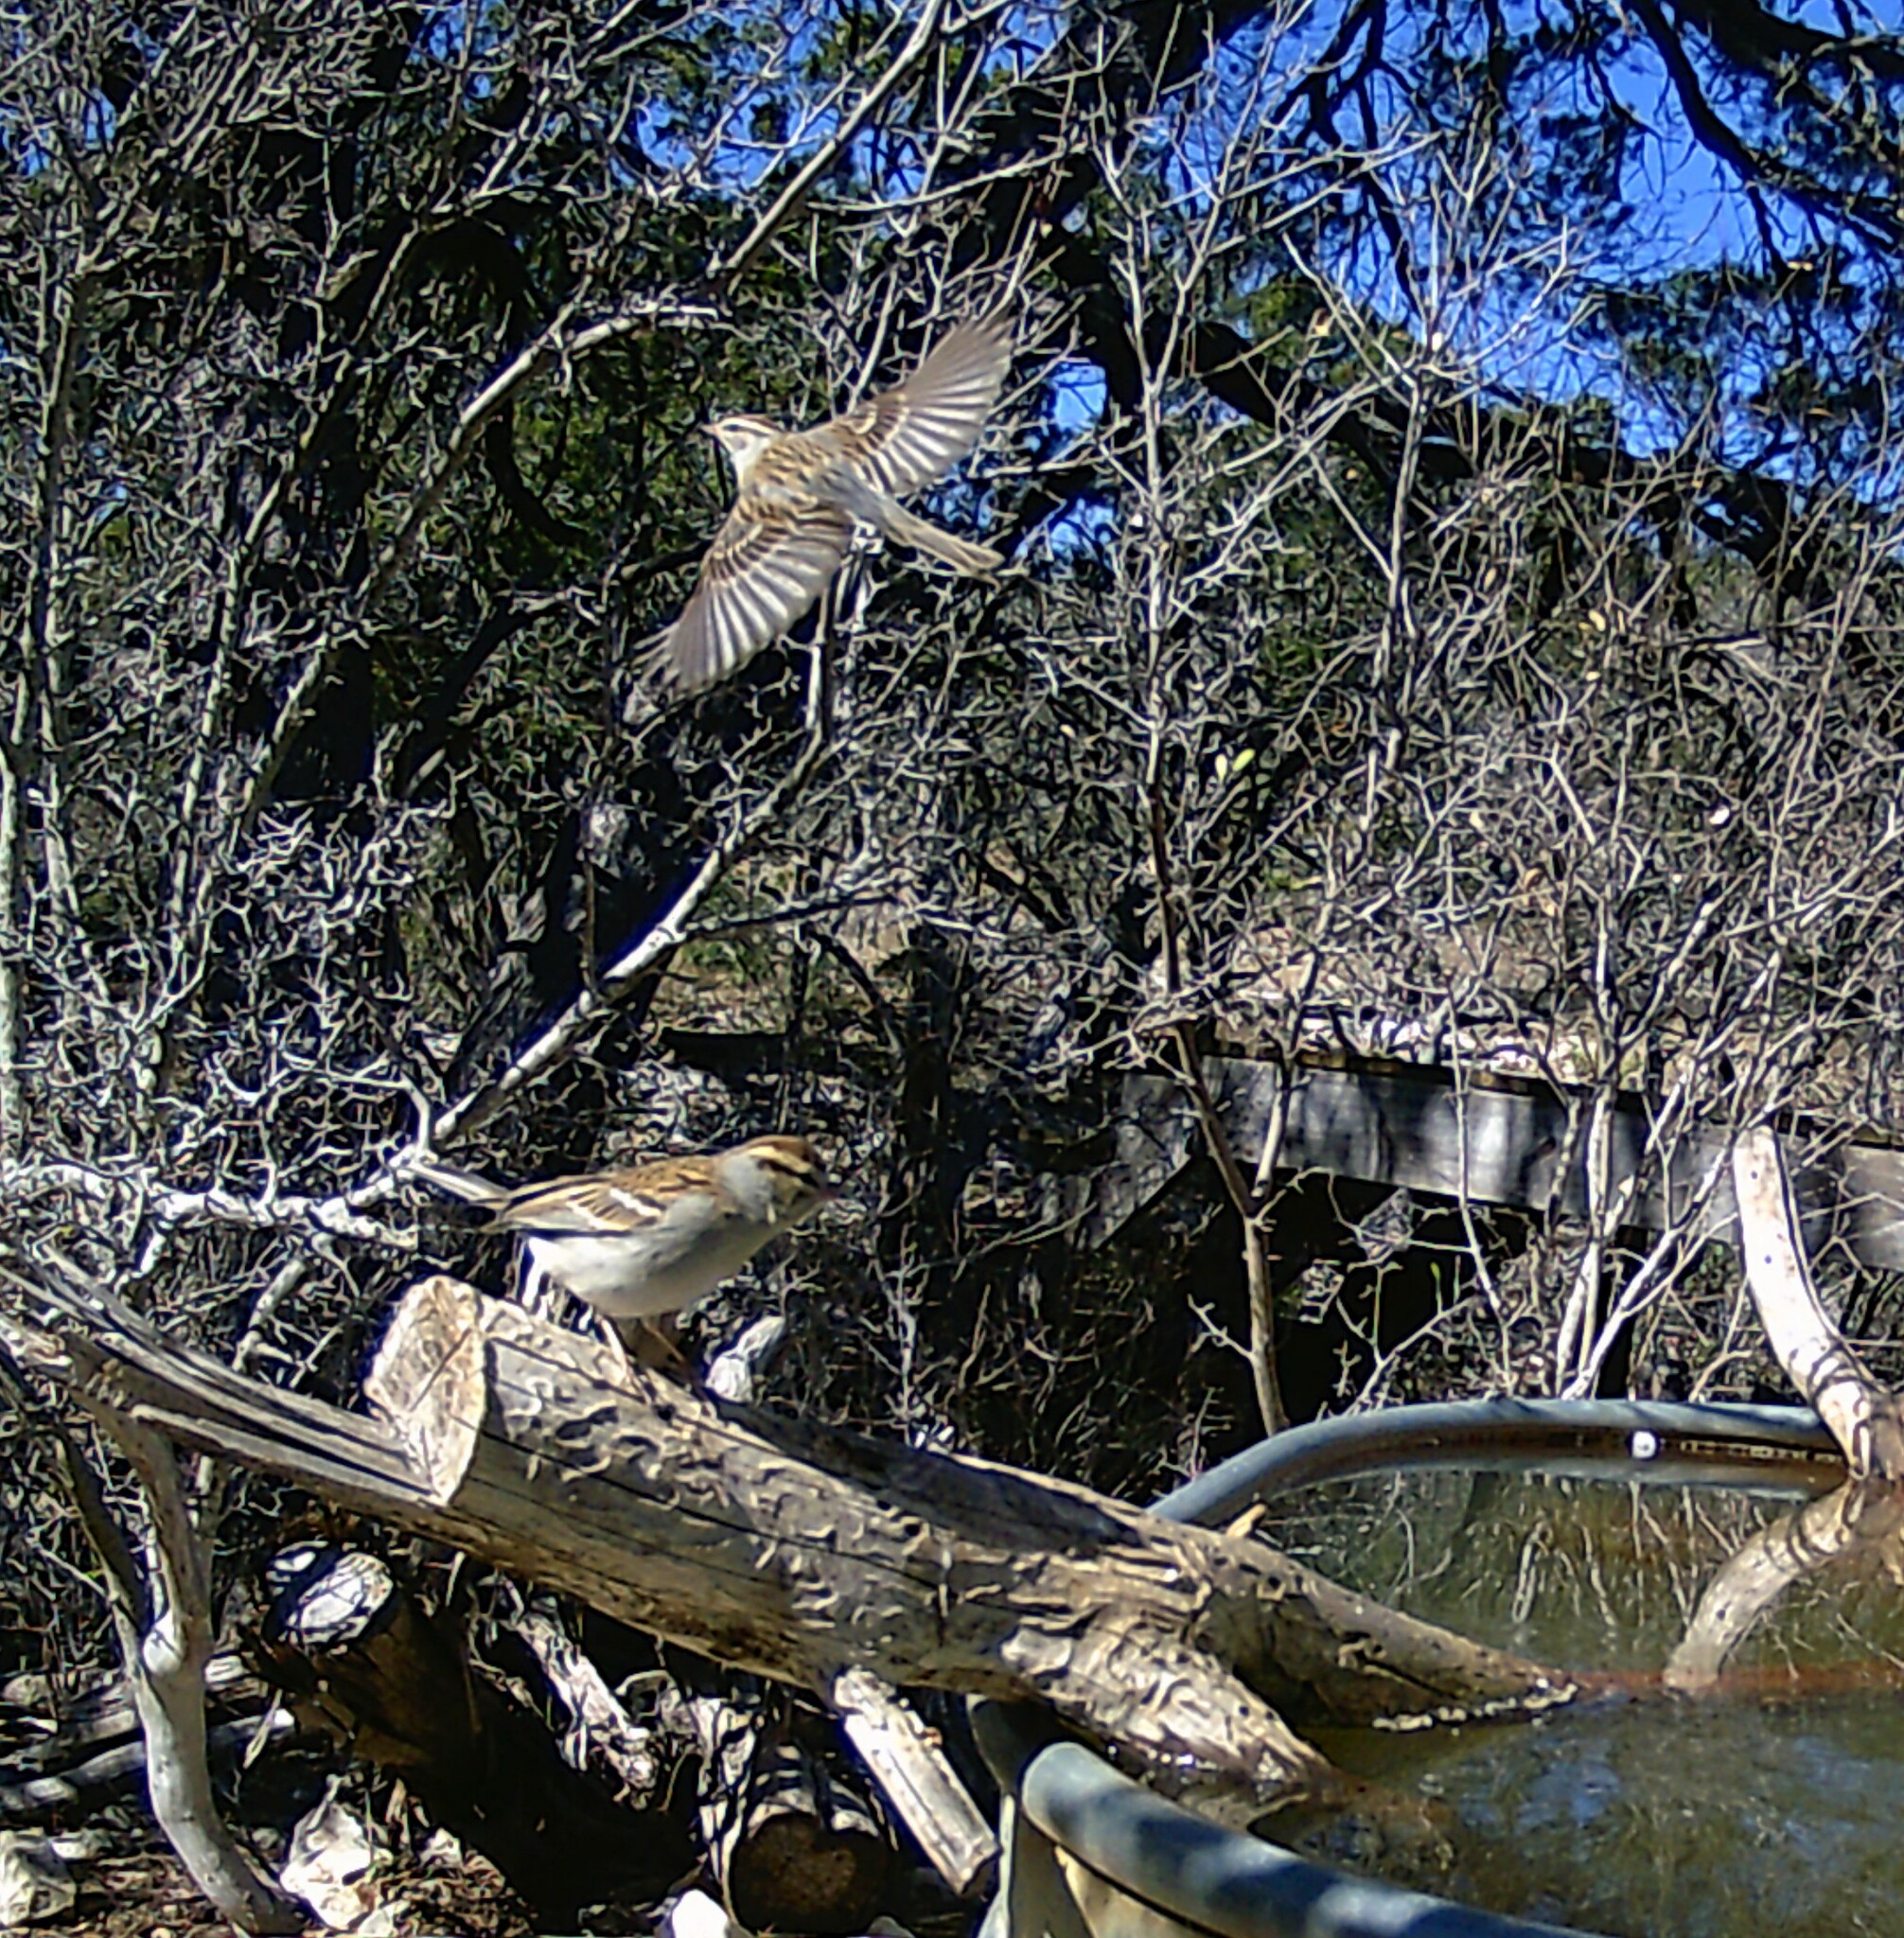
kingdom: Animalia
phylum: Chordata
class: Aves
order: Passeriformes
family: Passerellidae
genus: Spizella
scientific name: Spizella passerina
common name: Chipping sparrow
